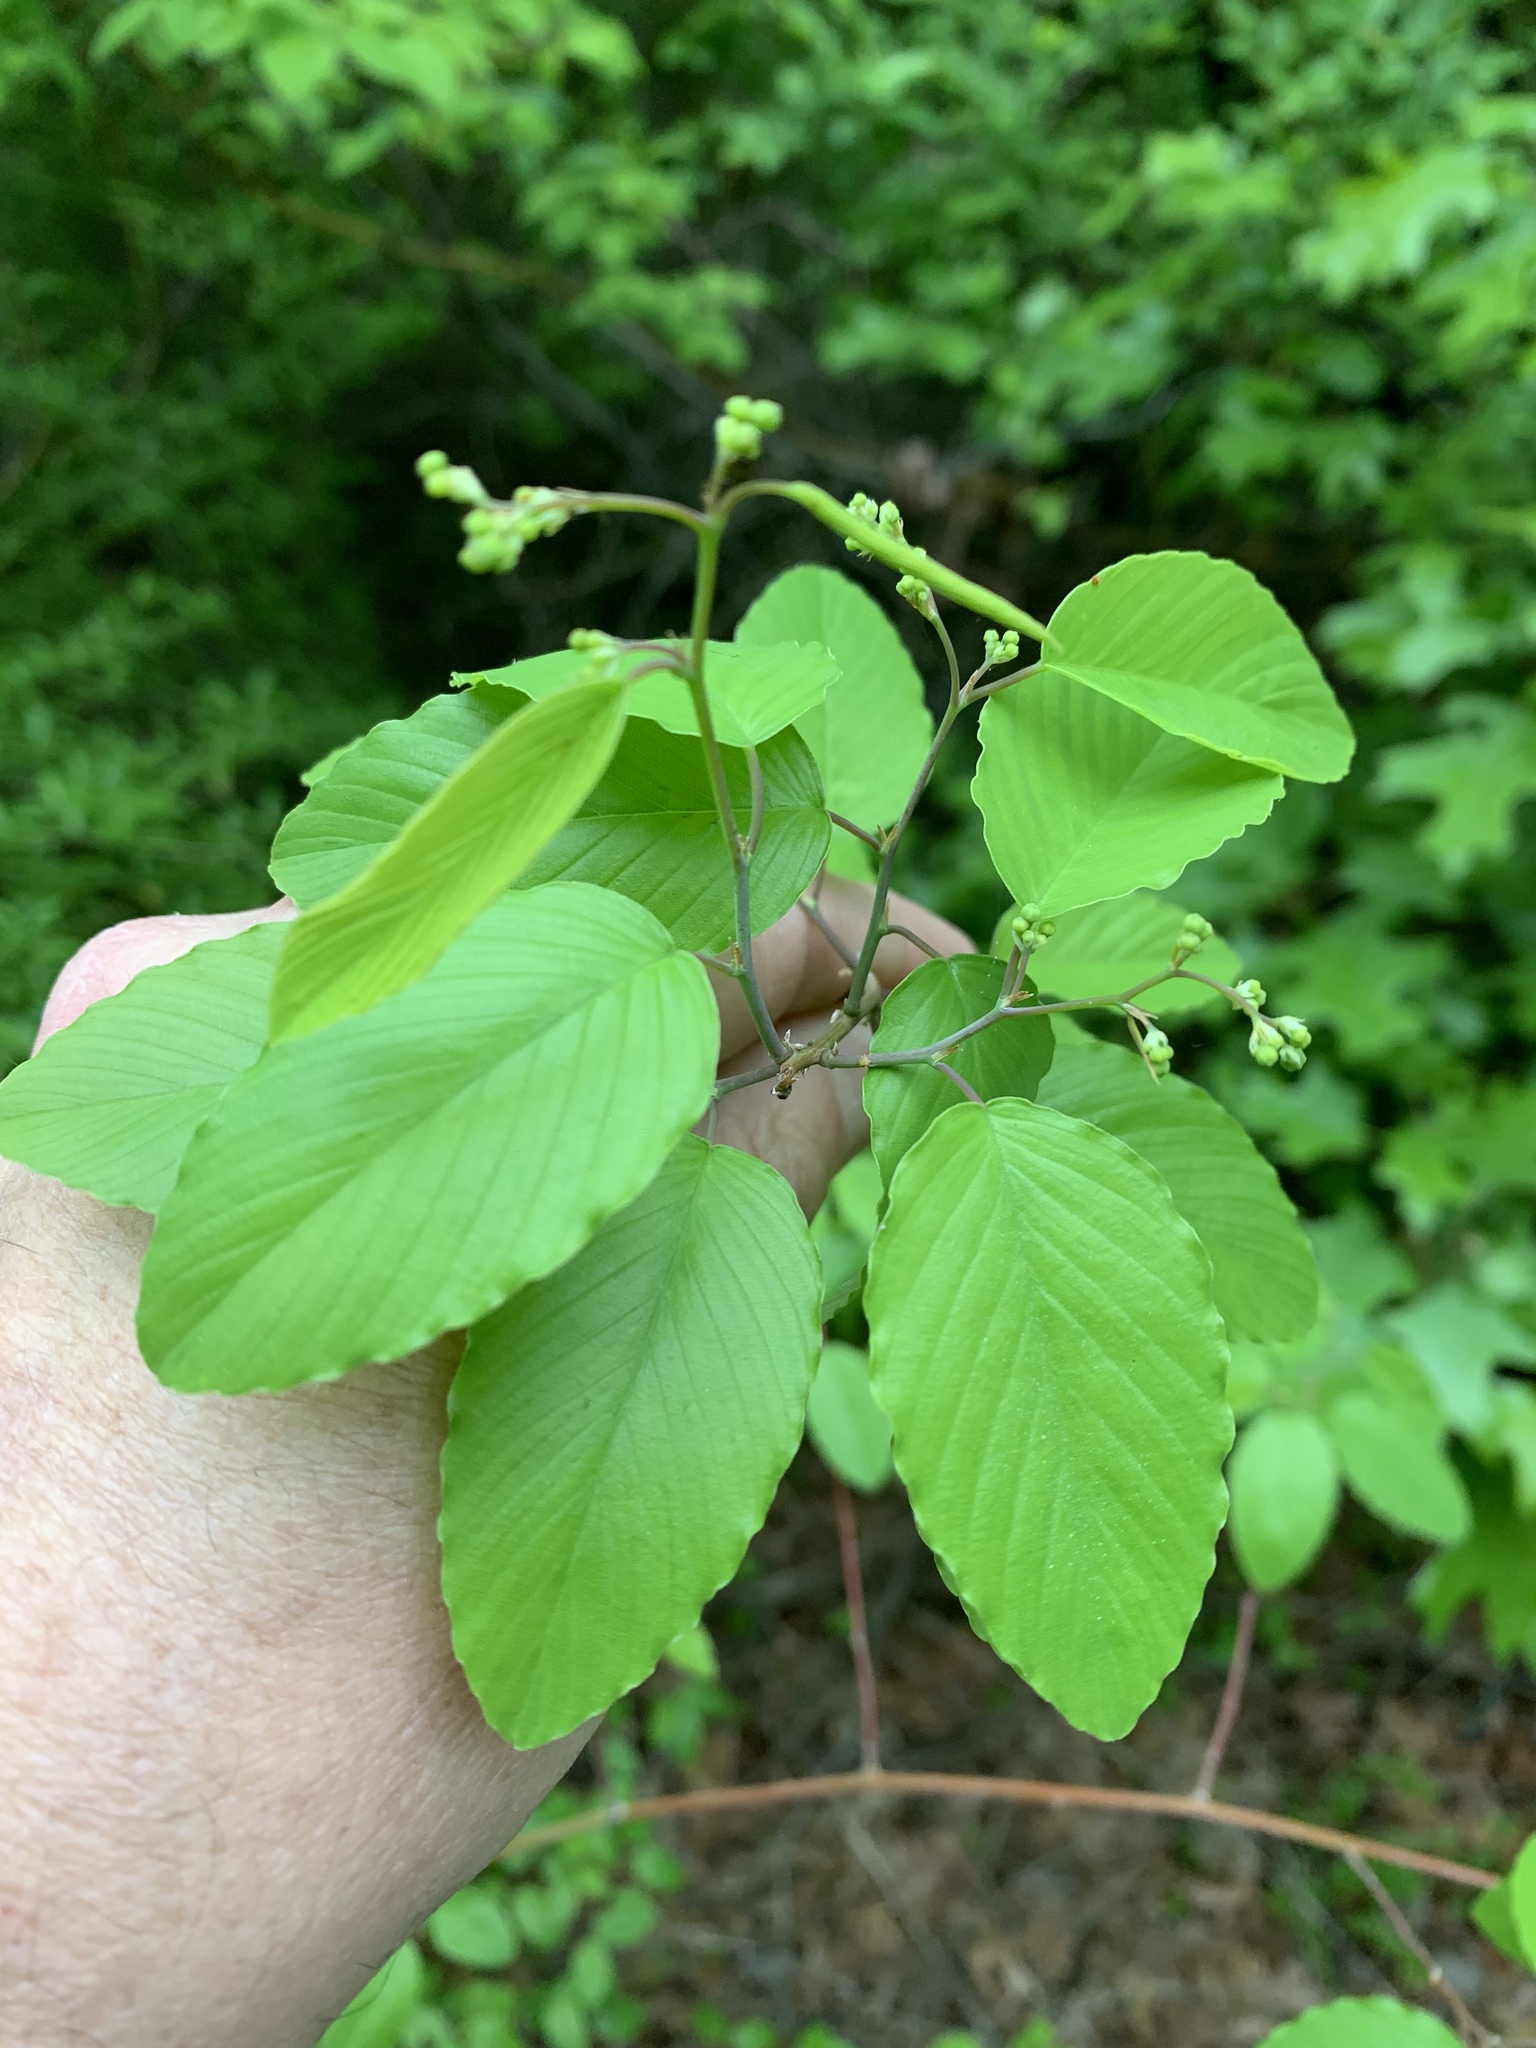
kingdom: Plantae
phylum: Tracheophyta
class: Magnoliopsida
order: Rosales
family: Rhamnaceae
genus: Berchemia
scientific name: Berchemia scandens
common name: Supplejack
